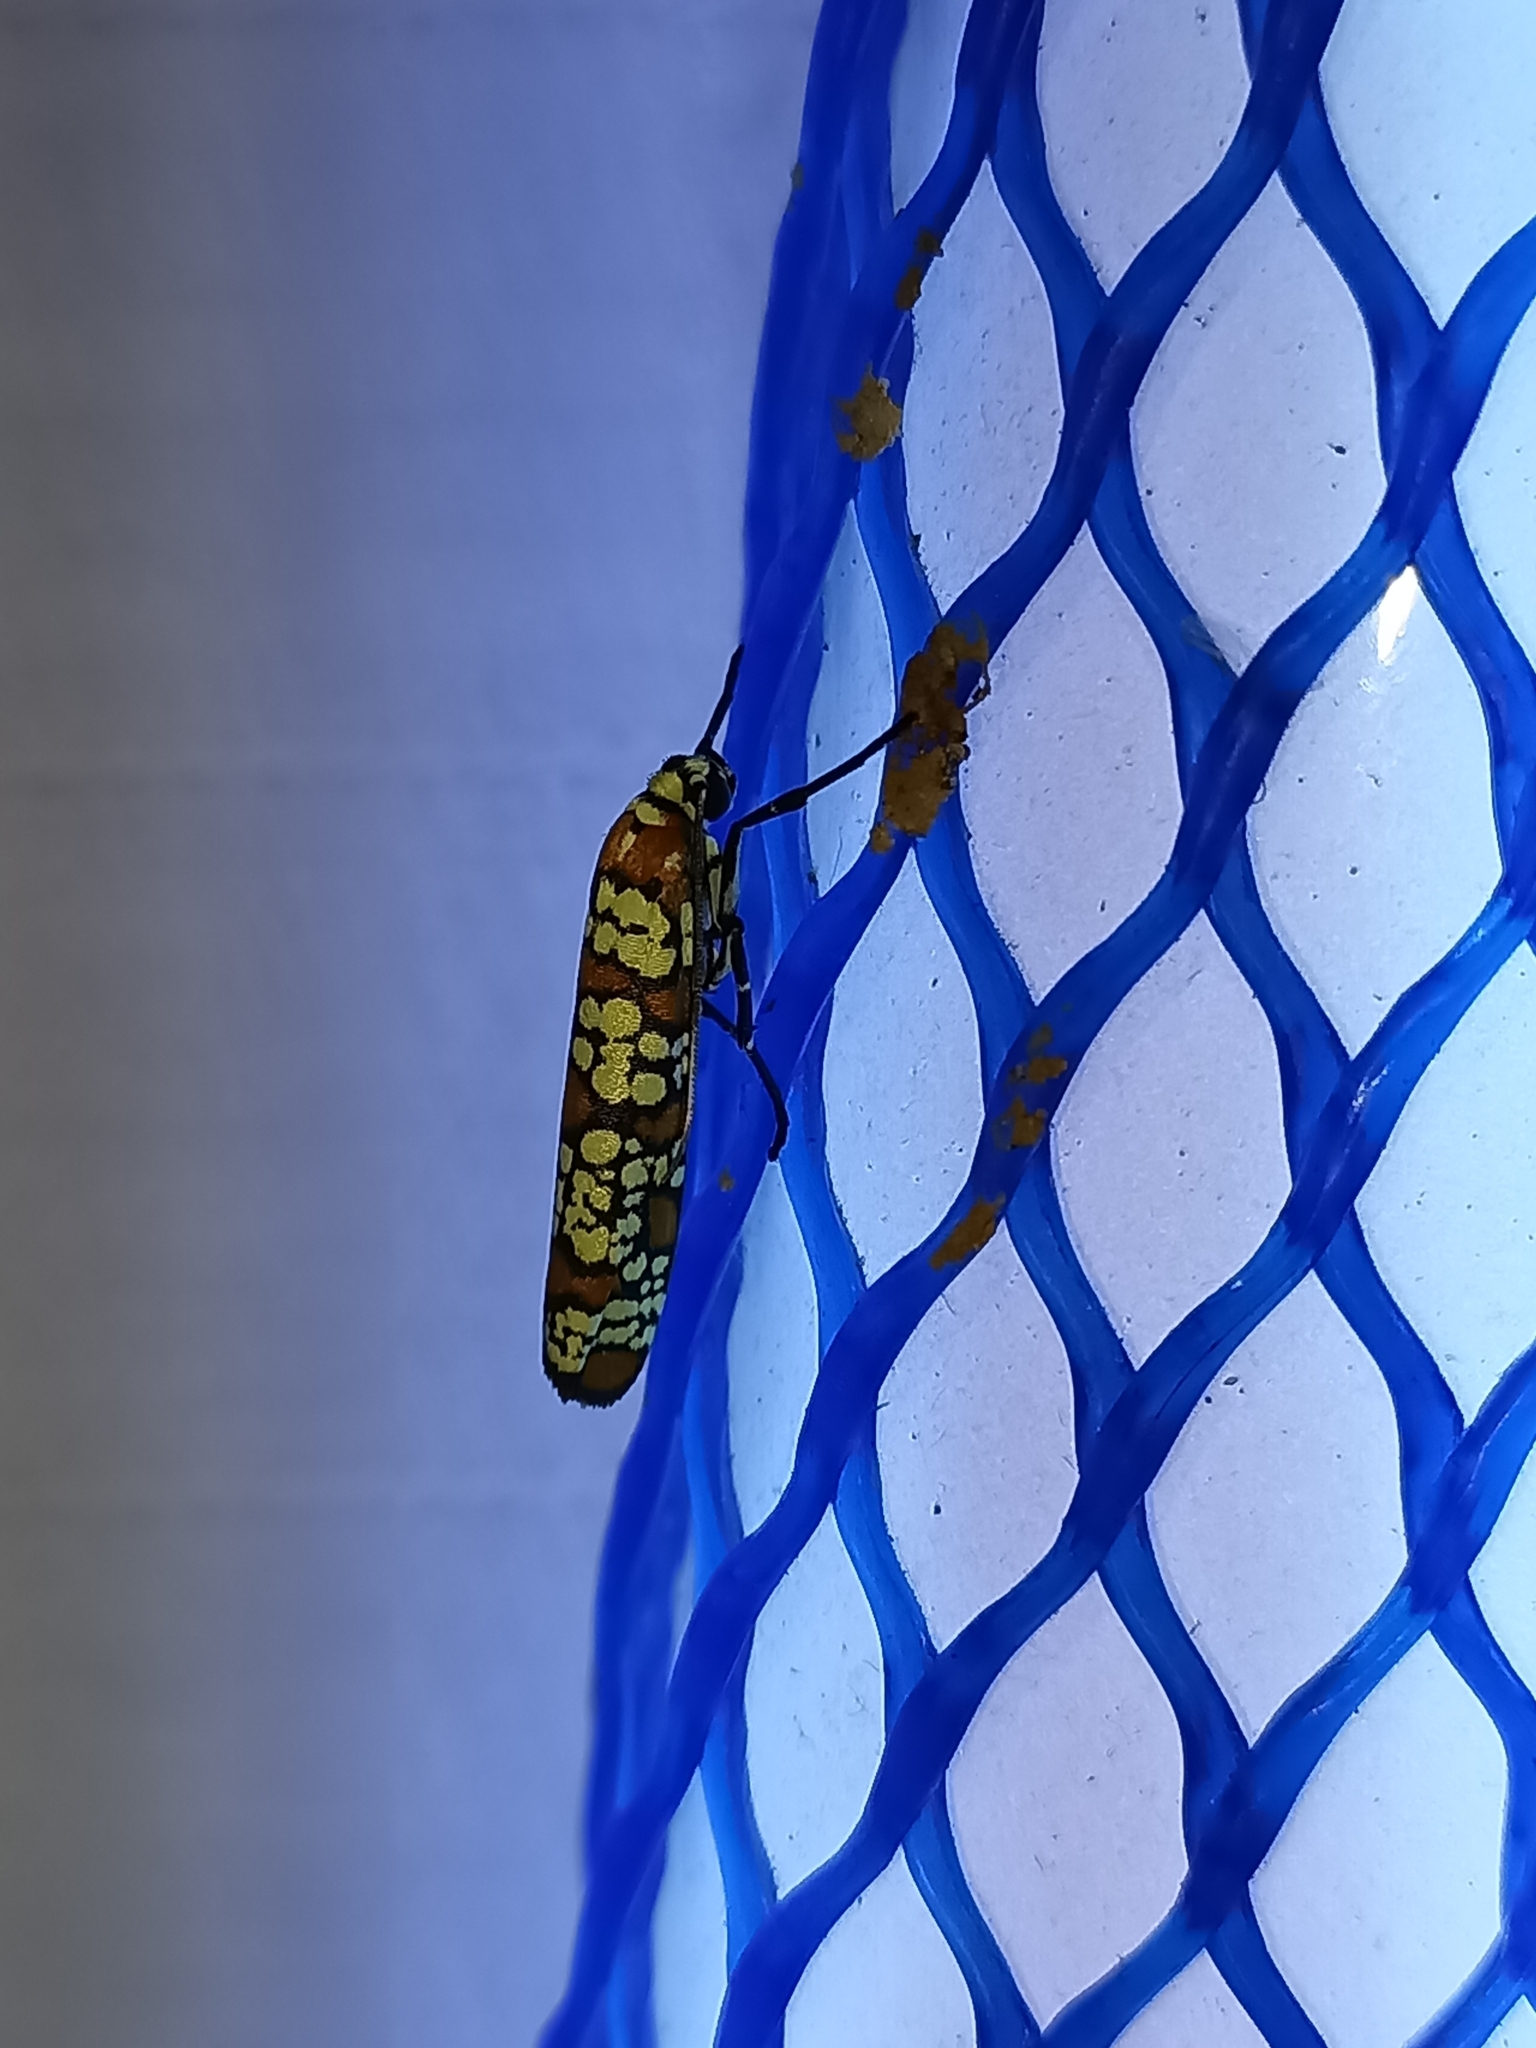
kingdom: Animalia
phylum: Arthropoda
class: Insecta
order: Lepidoptera
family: Attevidae
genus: Atteva
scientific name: Atteva punctella
